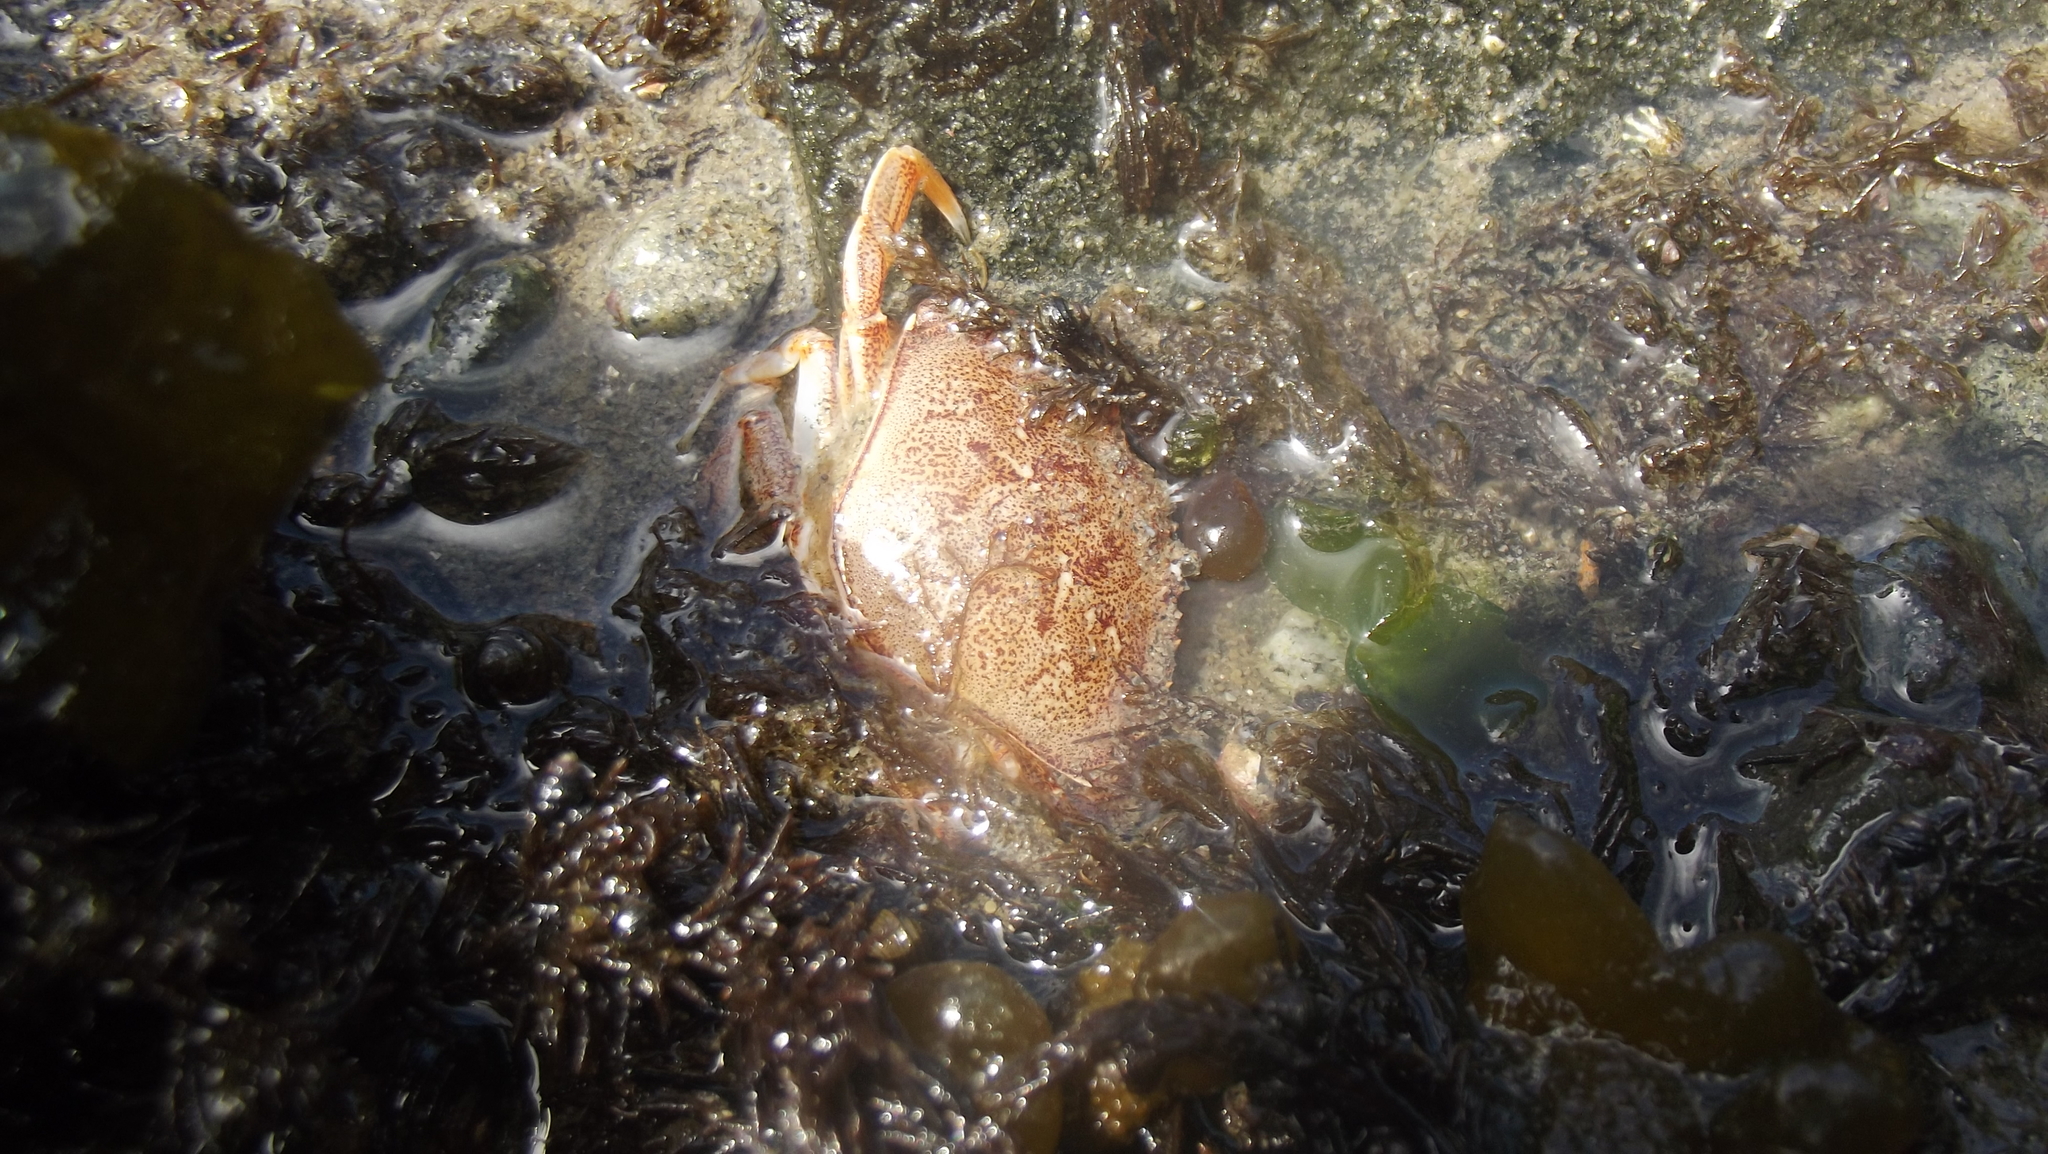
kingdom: Animalia
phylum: Arthropoda
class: Malacostraca
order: Decapoda
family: Cancridae
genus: Metacarcinus
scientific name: Metacarcinus magister
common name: Californian crab
